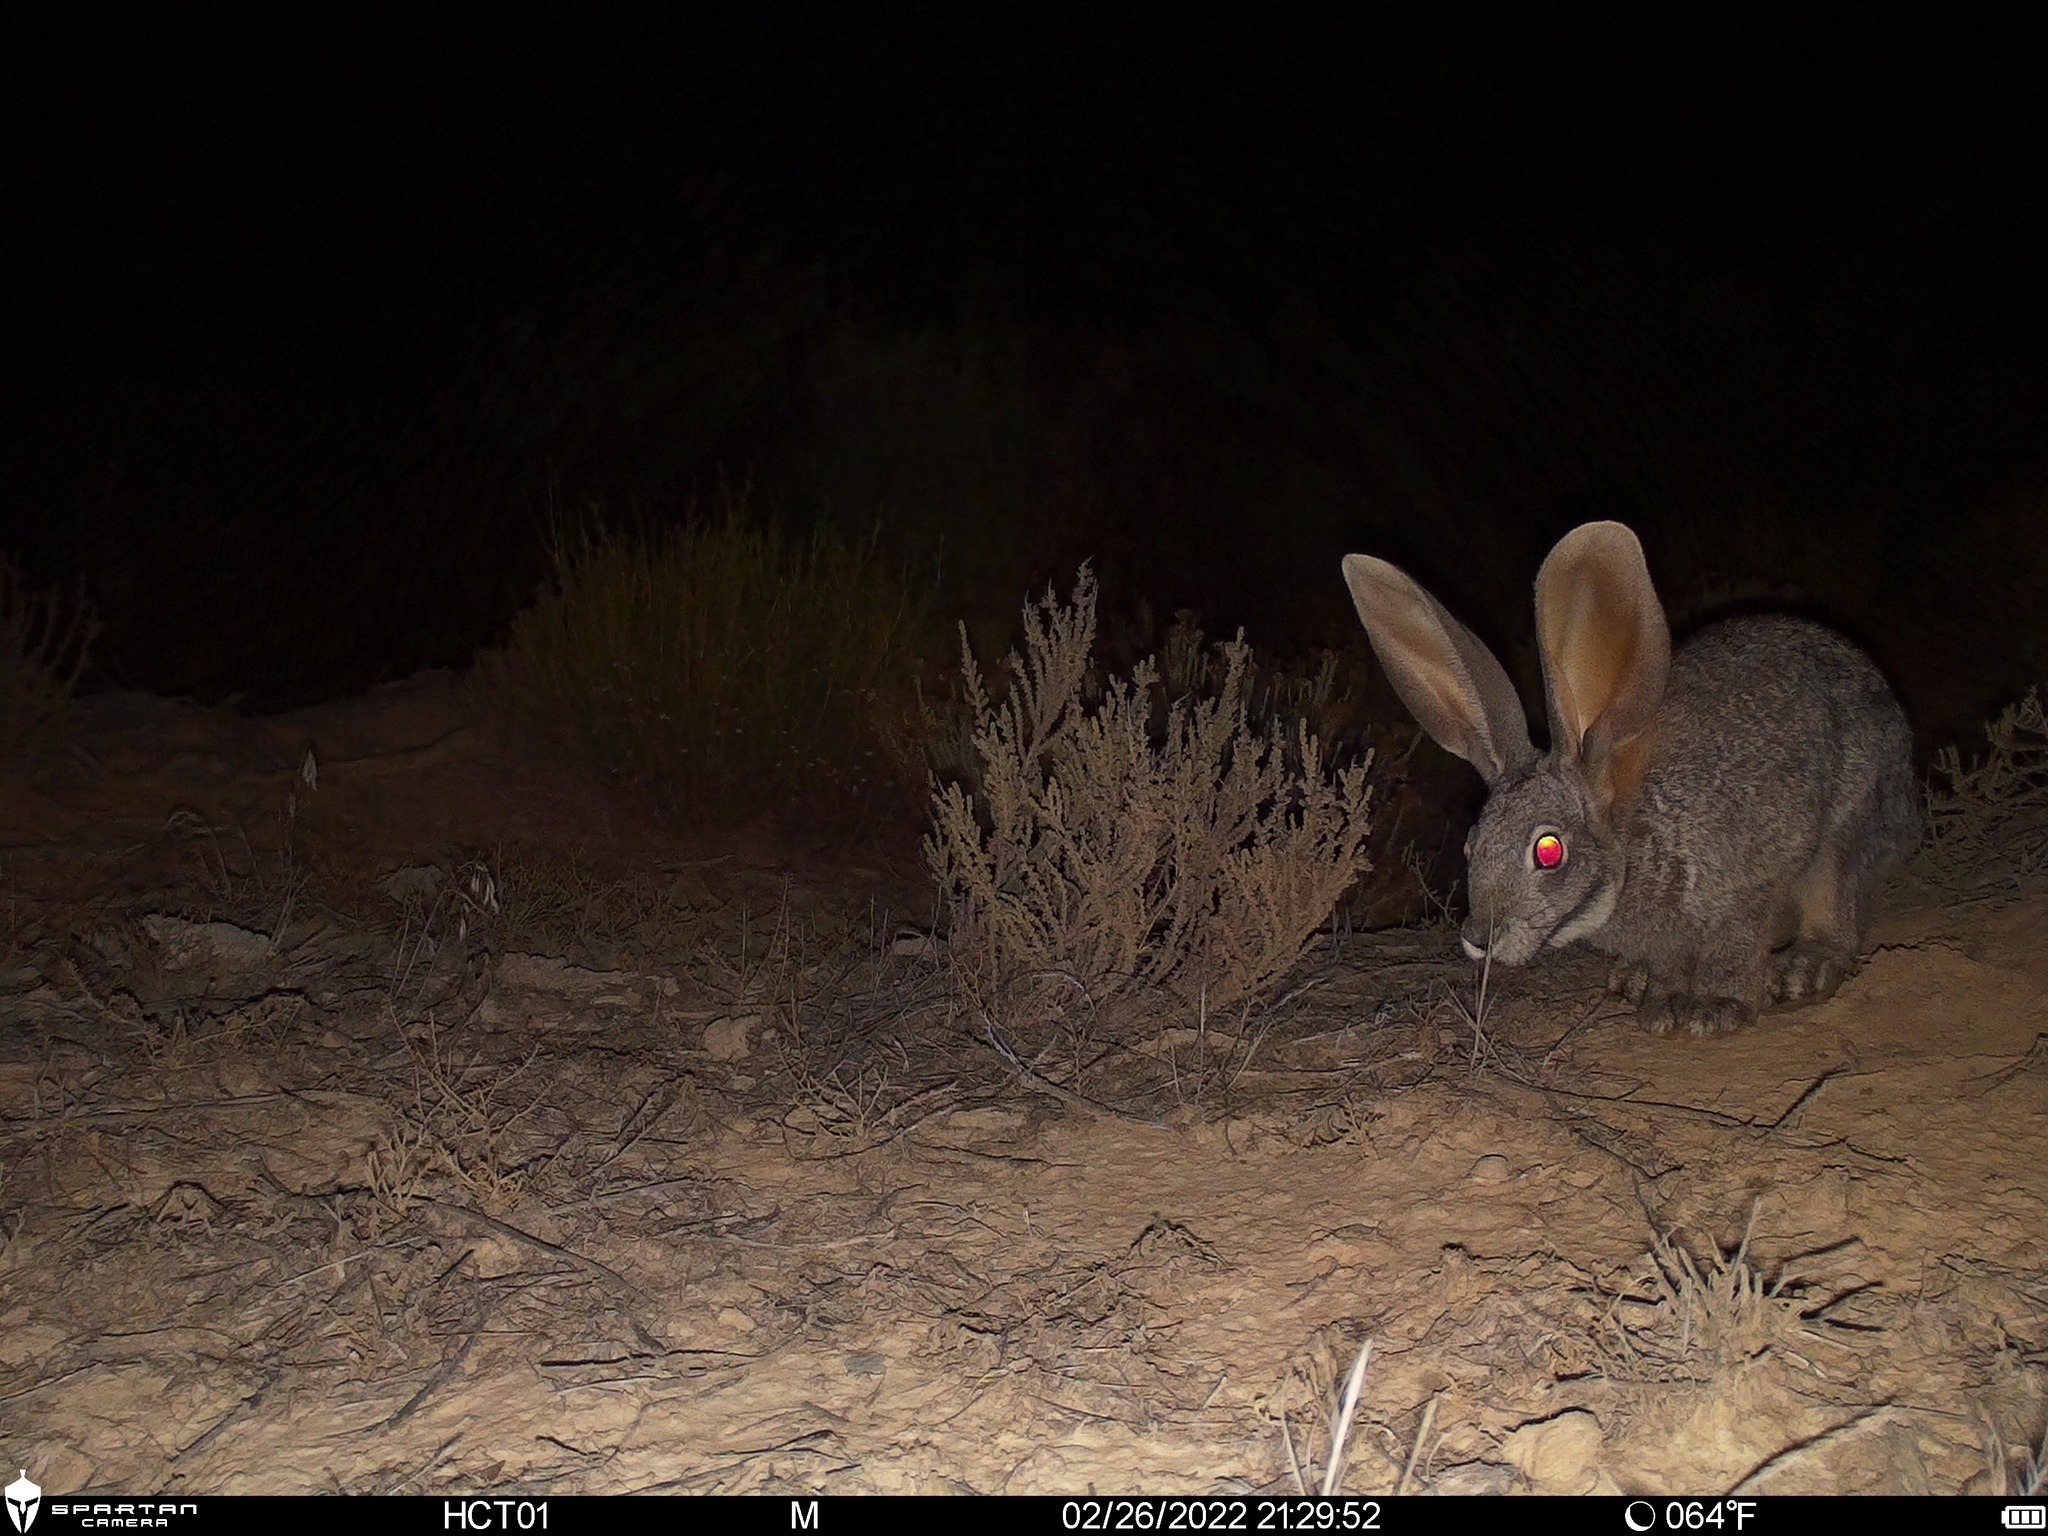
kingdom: Animalia
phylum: Chordata
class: Mammalia
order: Lagomorpha
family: Leporidae
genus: Bunolagus
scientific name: Bunolagus monticularis
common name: Riverine rabbit
